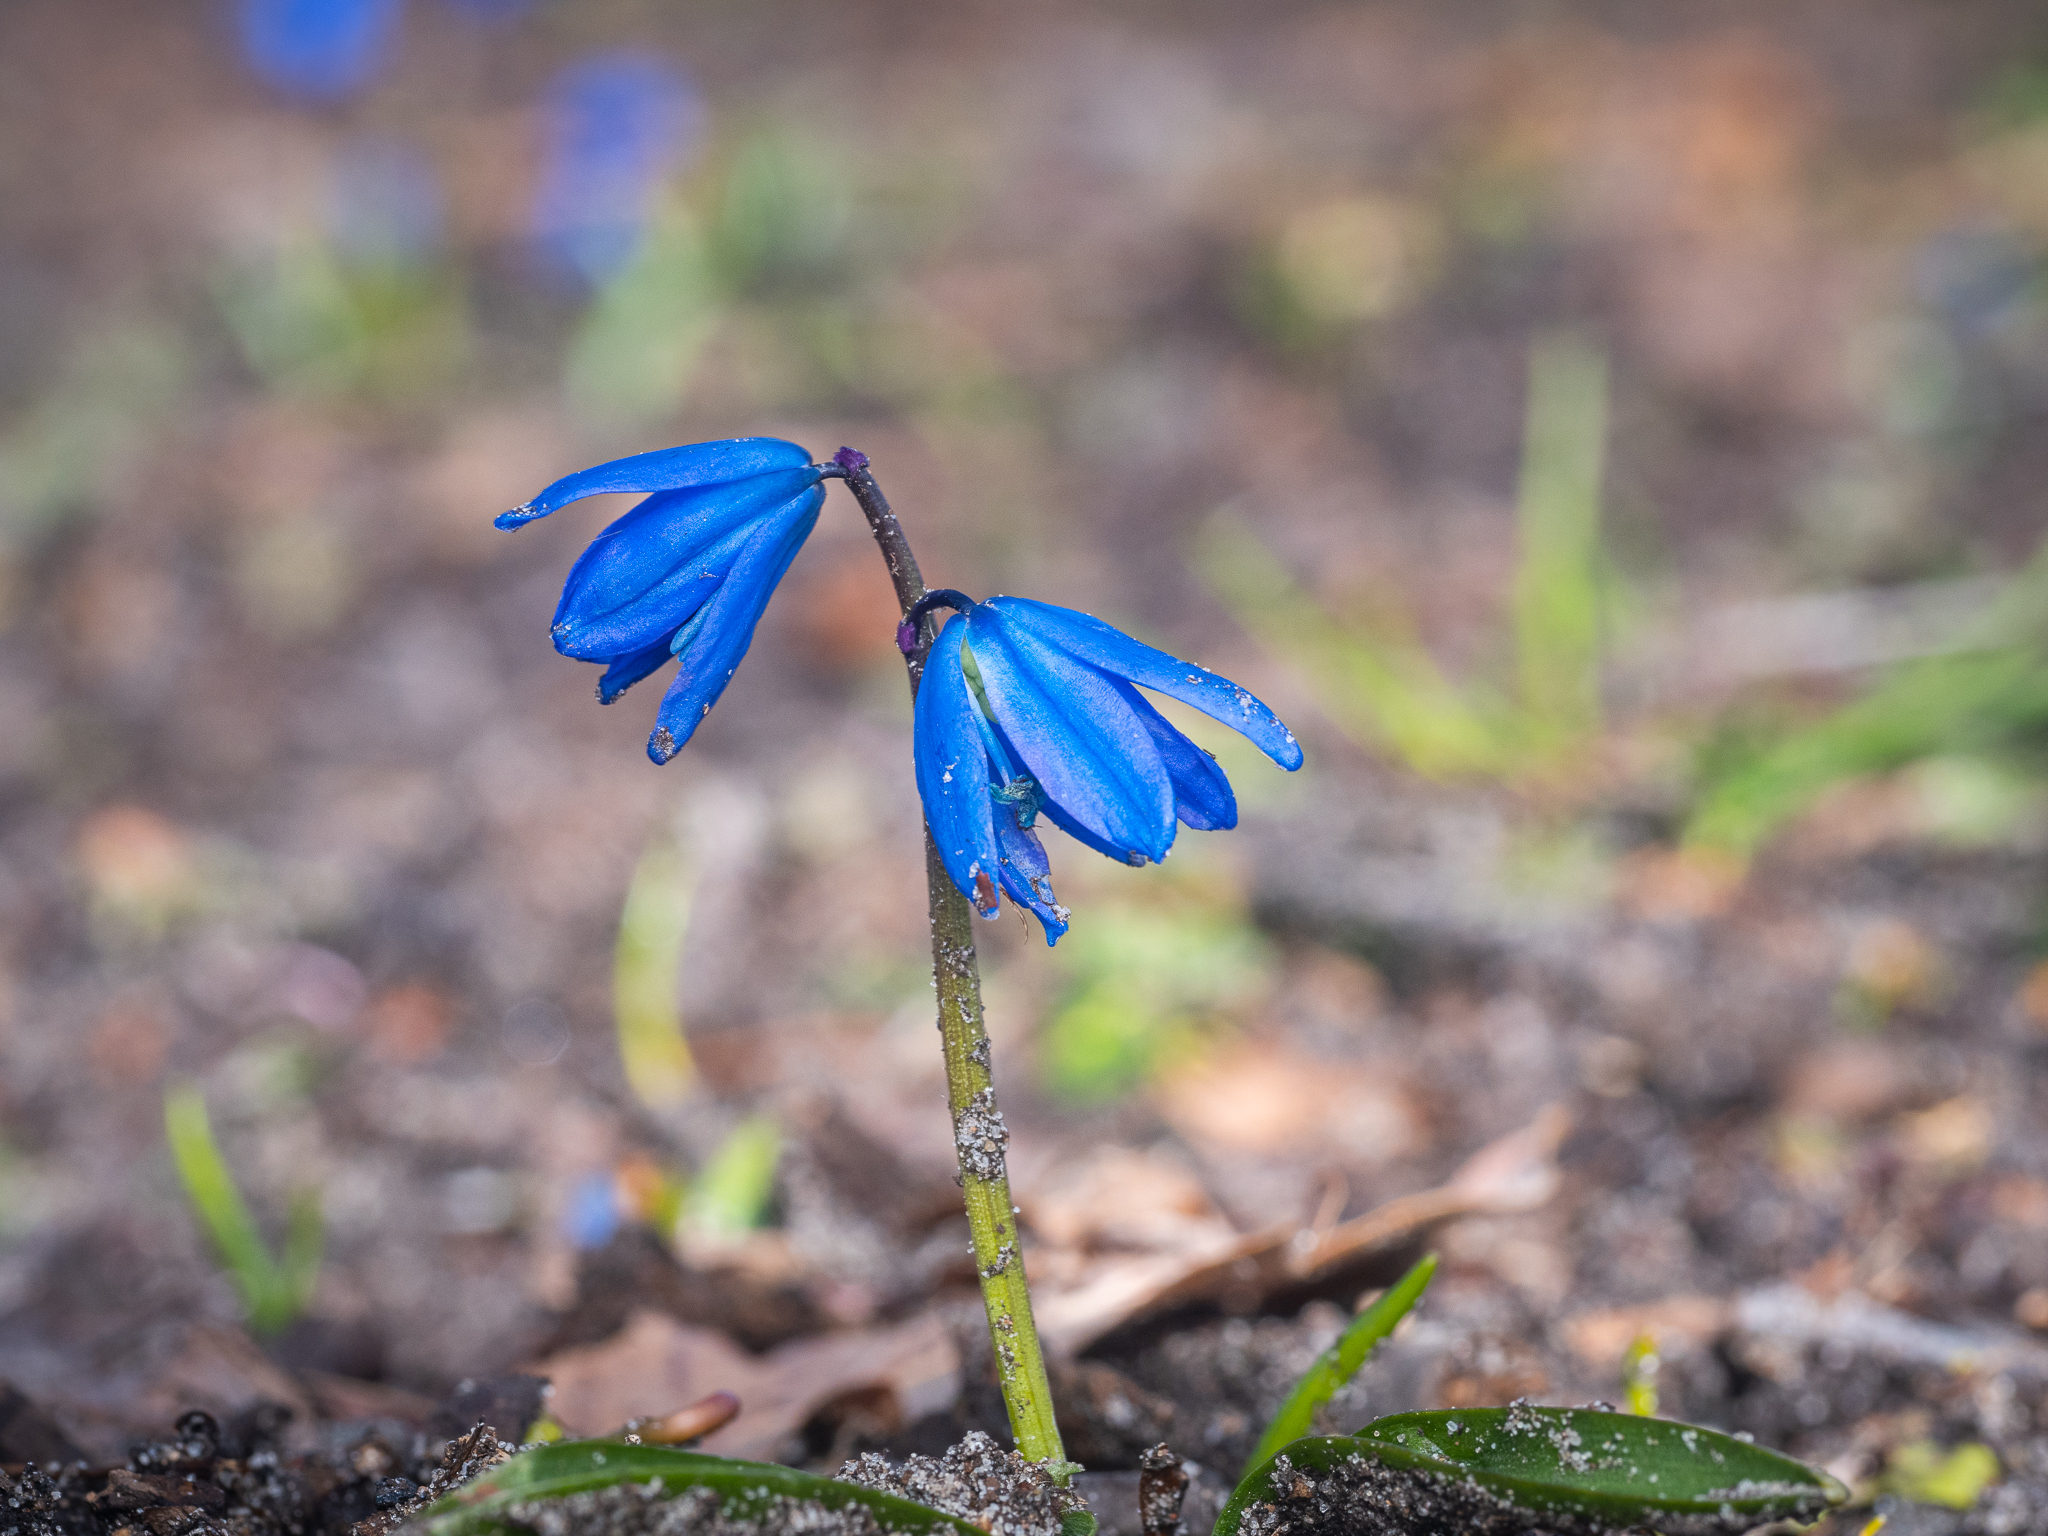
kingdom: Plantae
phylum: Tracheophyta
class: Liliopsida
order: Asparagales
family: Asparagaceae
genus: Scilla
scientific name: Scilla siberica
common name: Siberian squill
